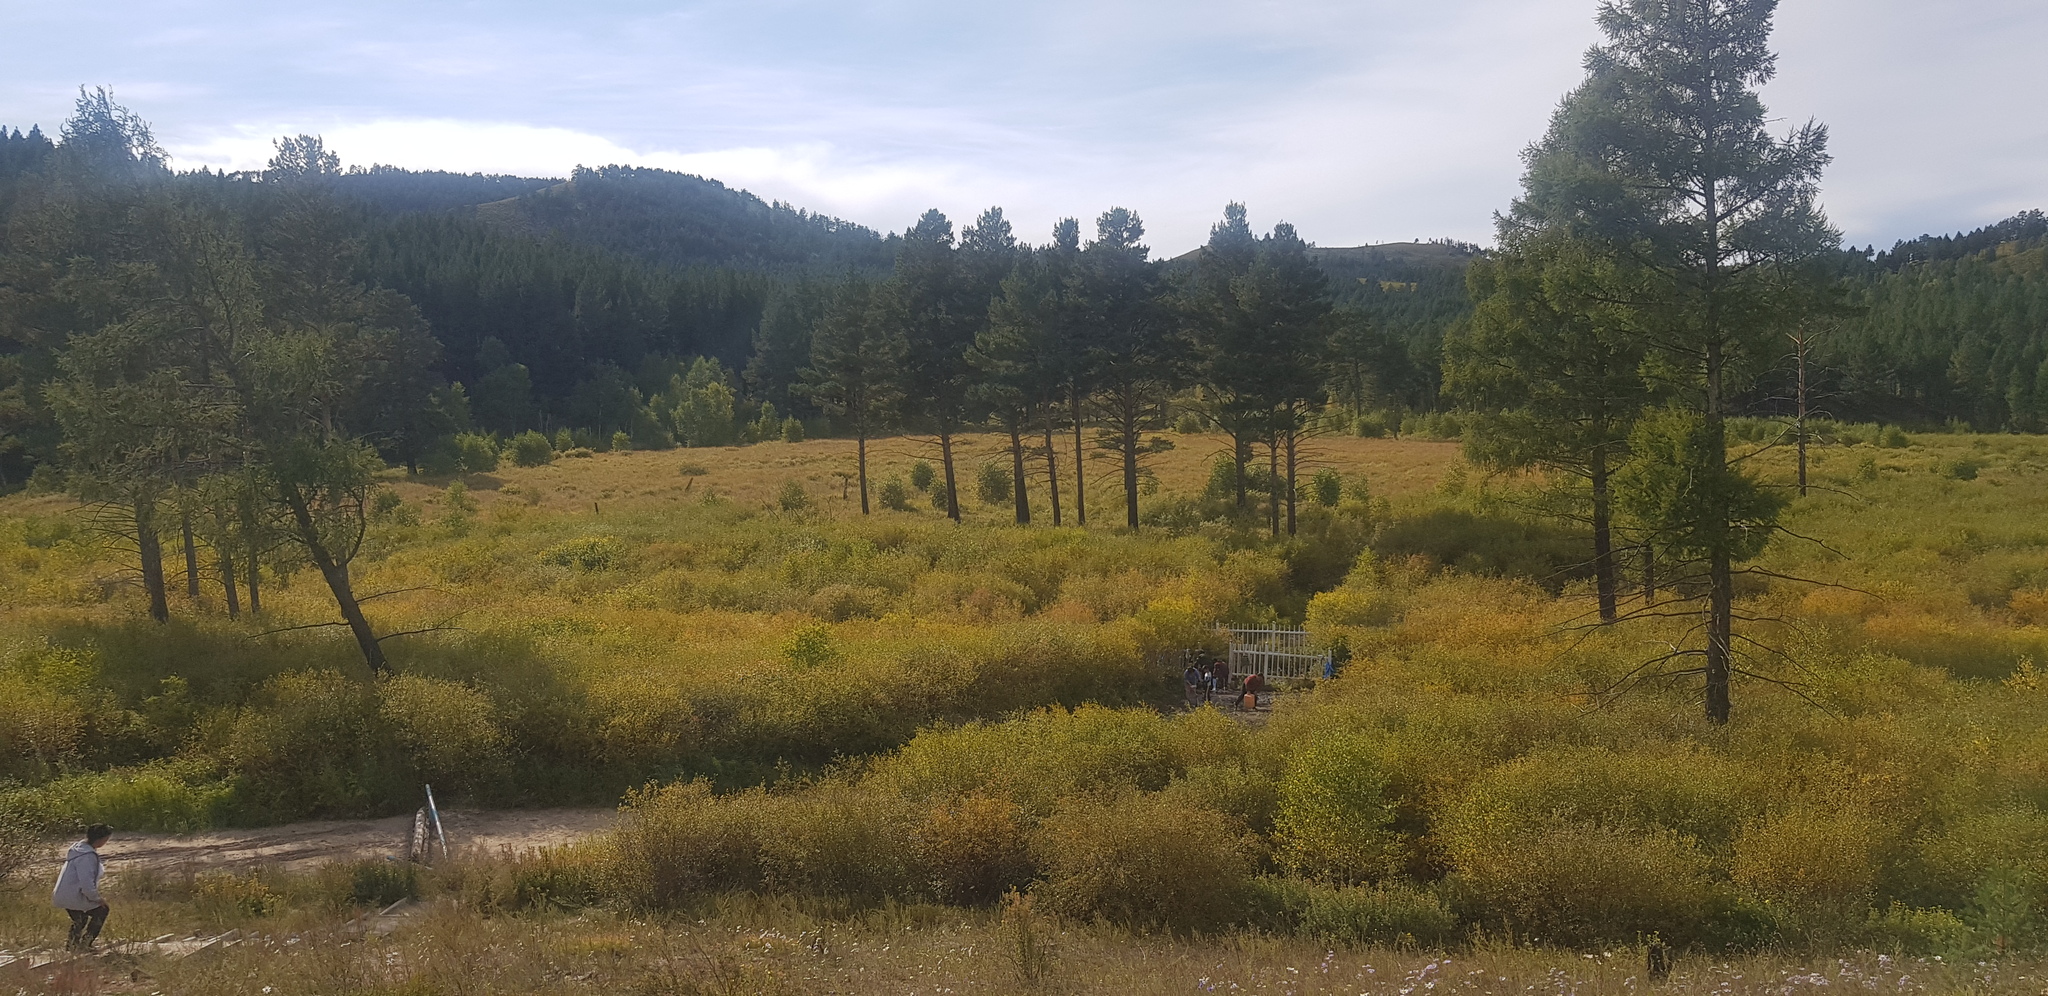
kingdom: Plantae
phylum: Tracheophyta
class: Pinopsida
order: Pinales
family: Pinaceae
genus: Pinus
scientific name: Pinus sylvestris
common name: Scots pine
